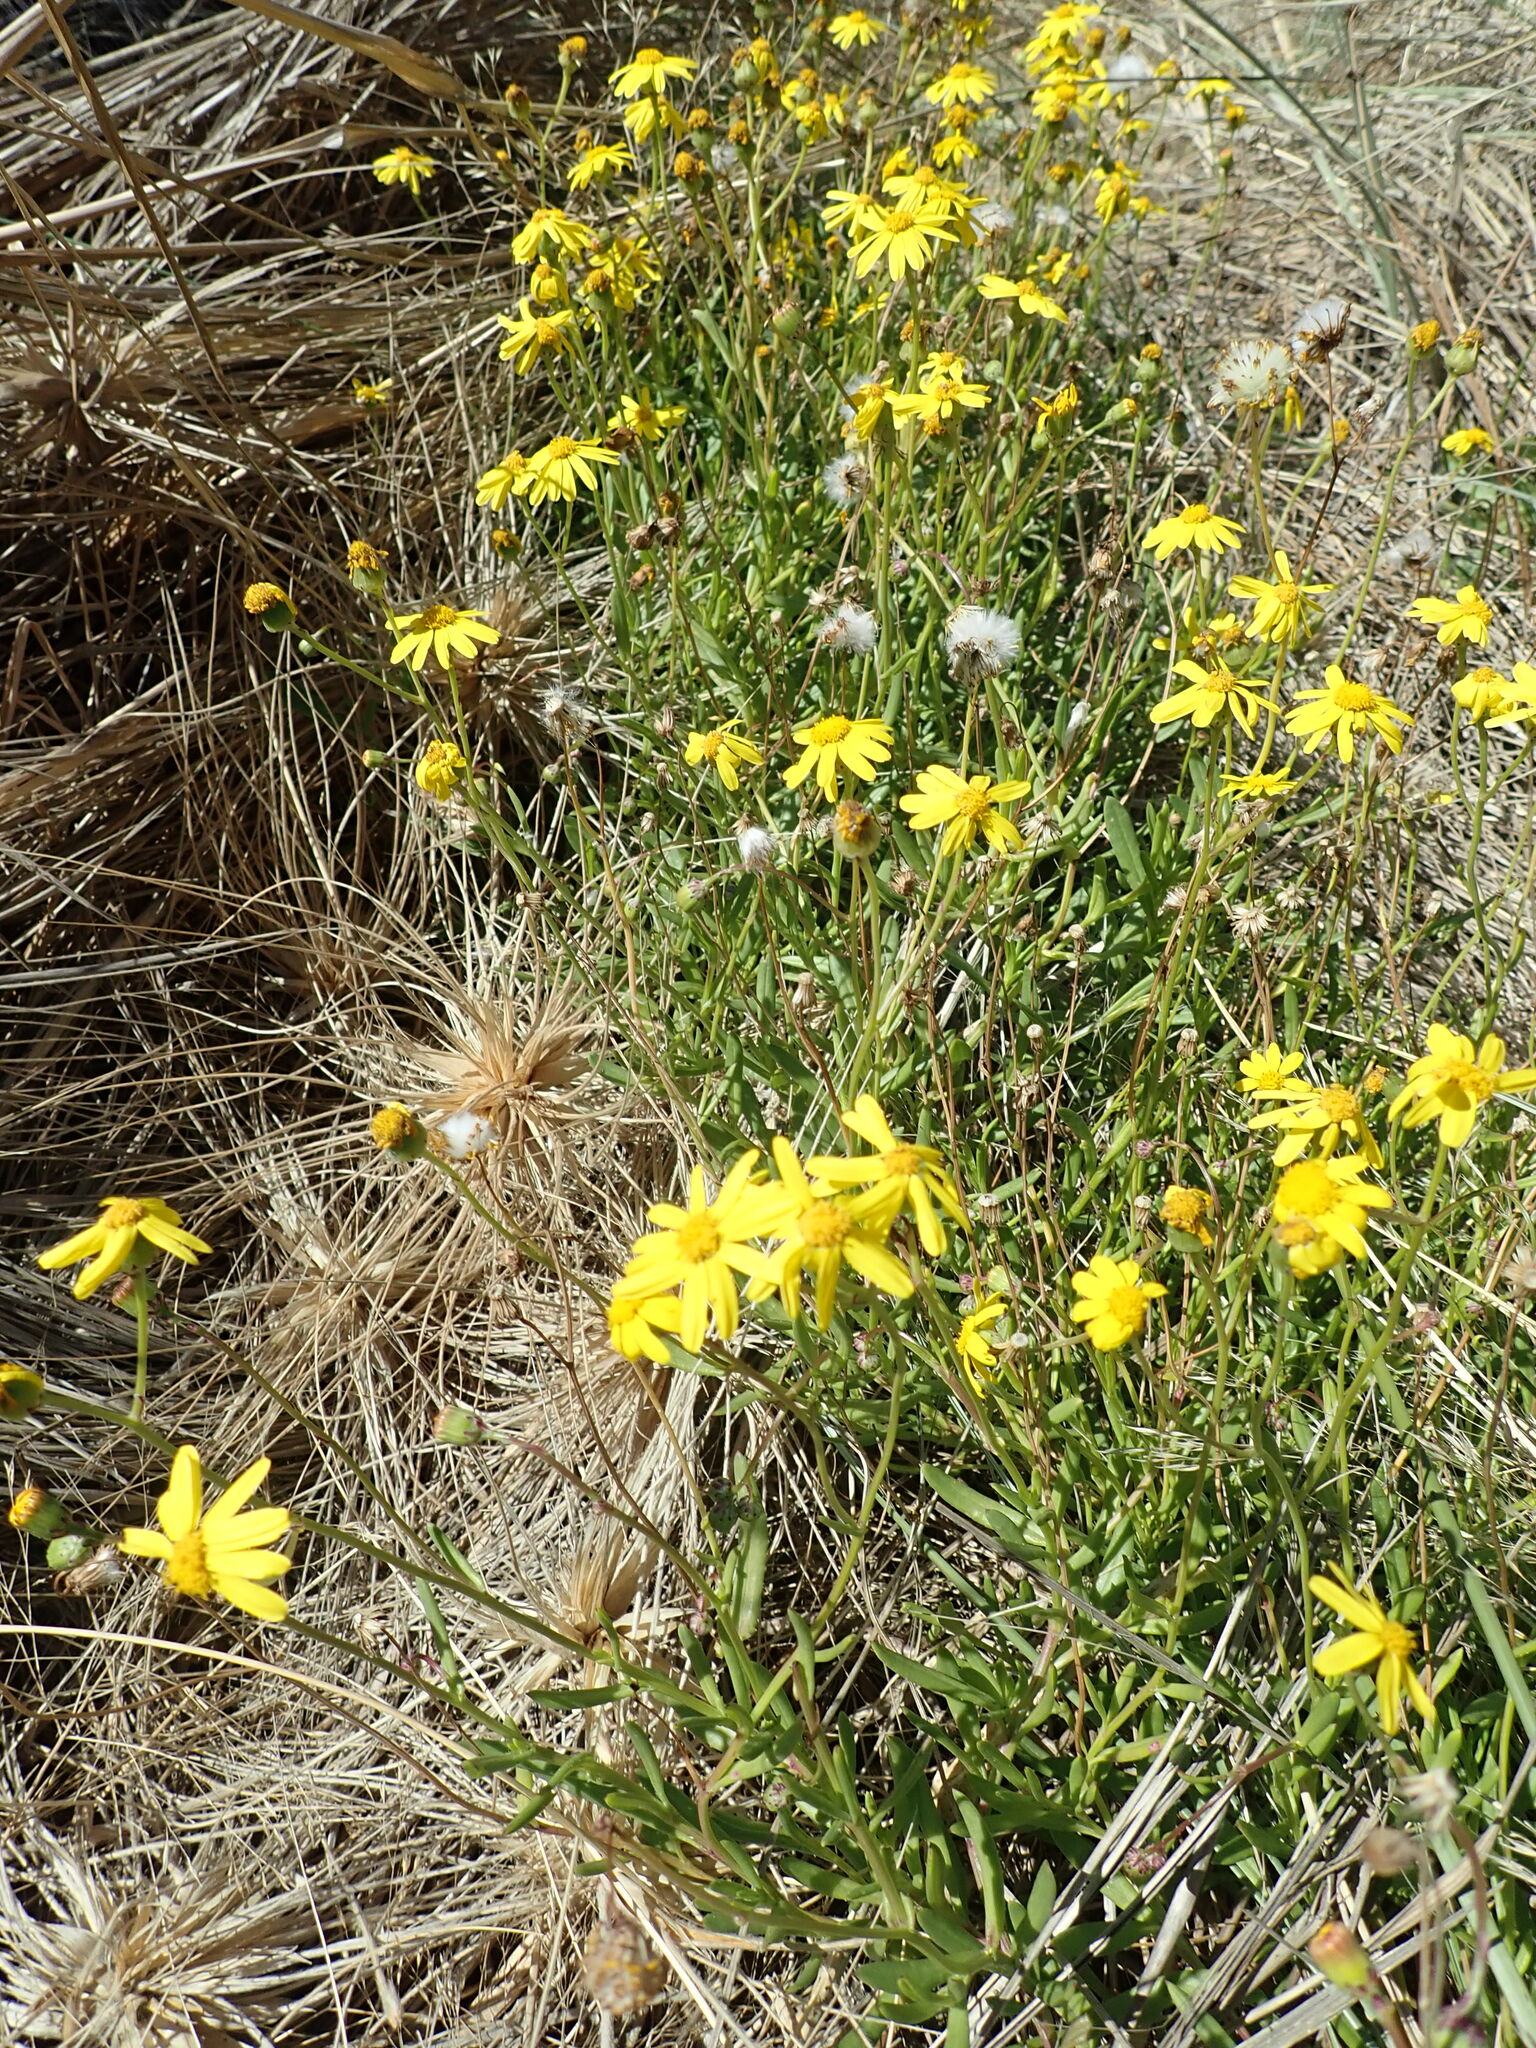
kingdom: Plantae
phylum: Tracheophyta
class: Magnoliopsida
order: Asterales
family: Asteraceae
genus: Senecio
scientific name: Senecio skirrhodon
